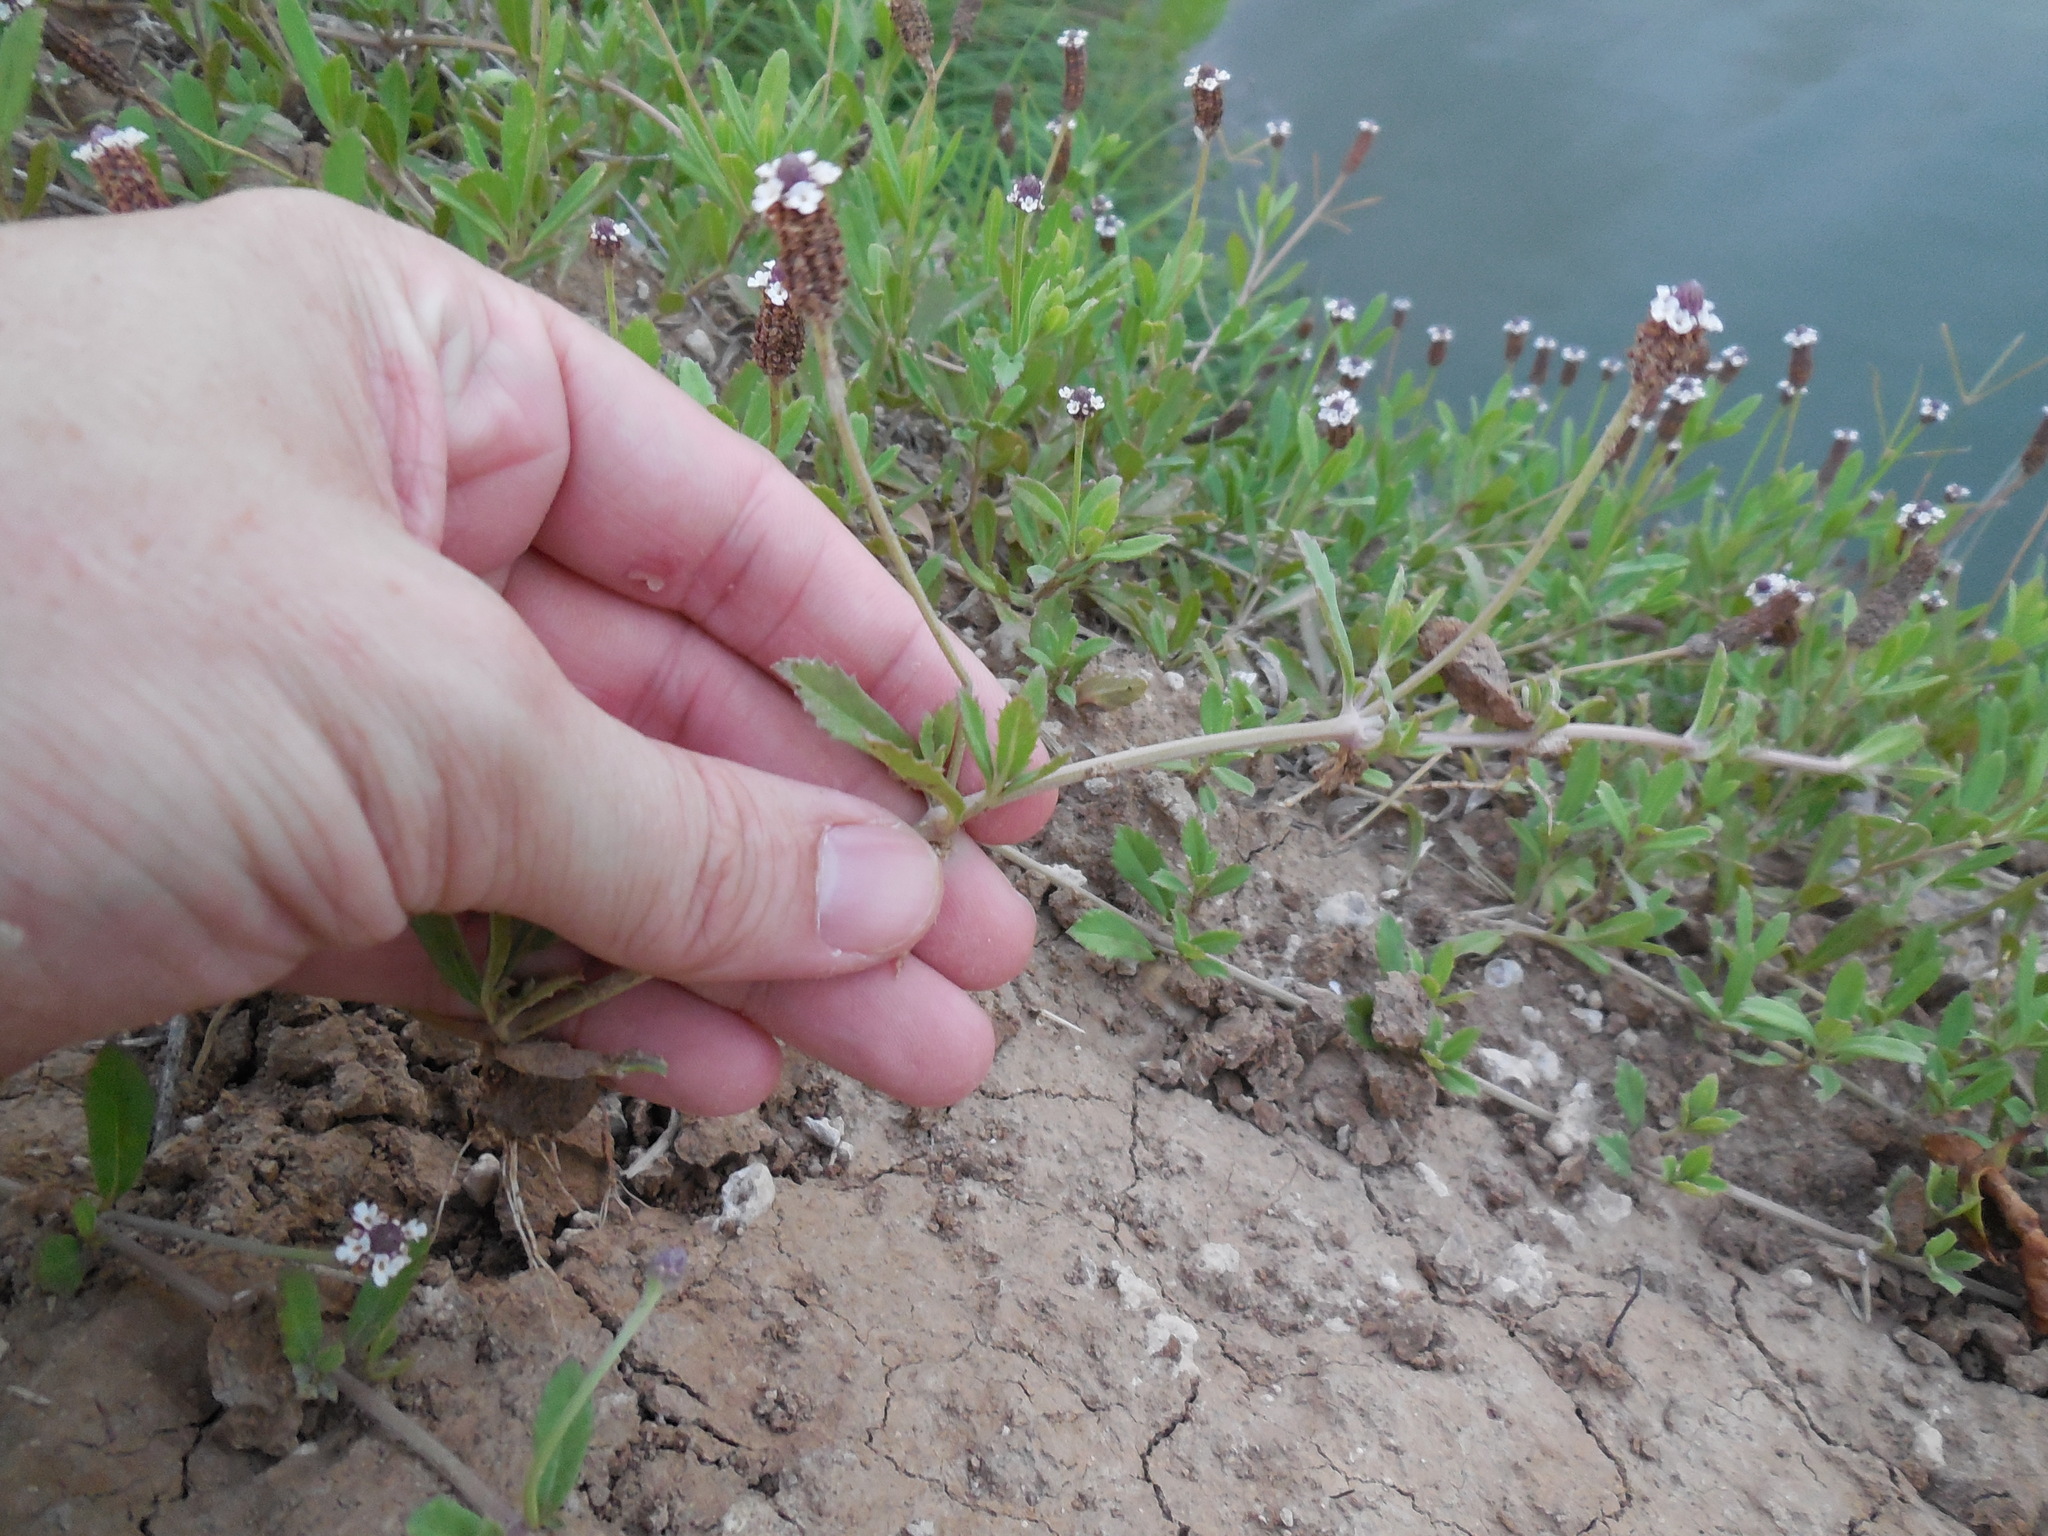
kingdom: Plantae
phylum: Tracheophyta
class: Magnoliopsida
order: Lamiales
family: Verbenaceae
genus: Phyla
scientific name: Phyla nodiflora
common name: Frogfruit
